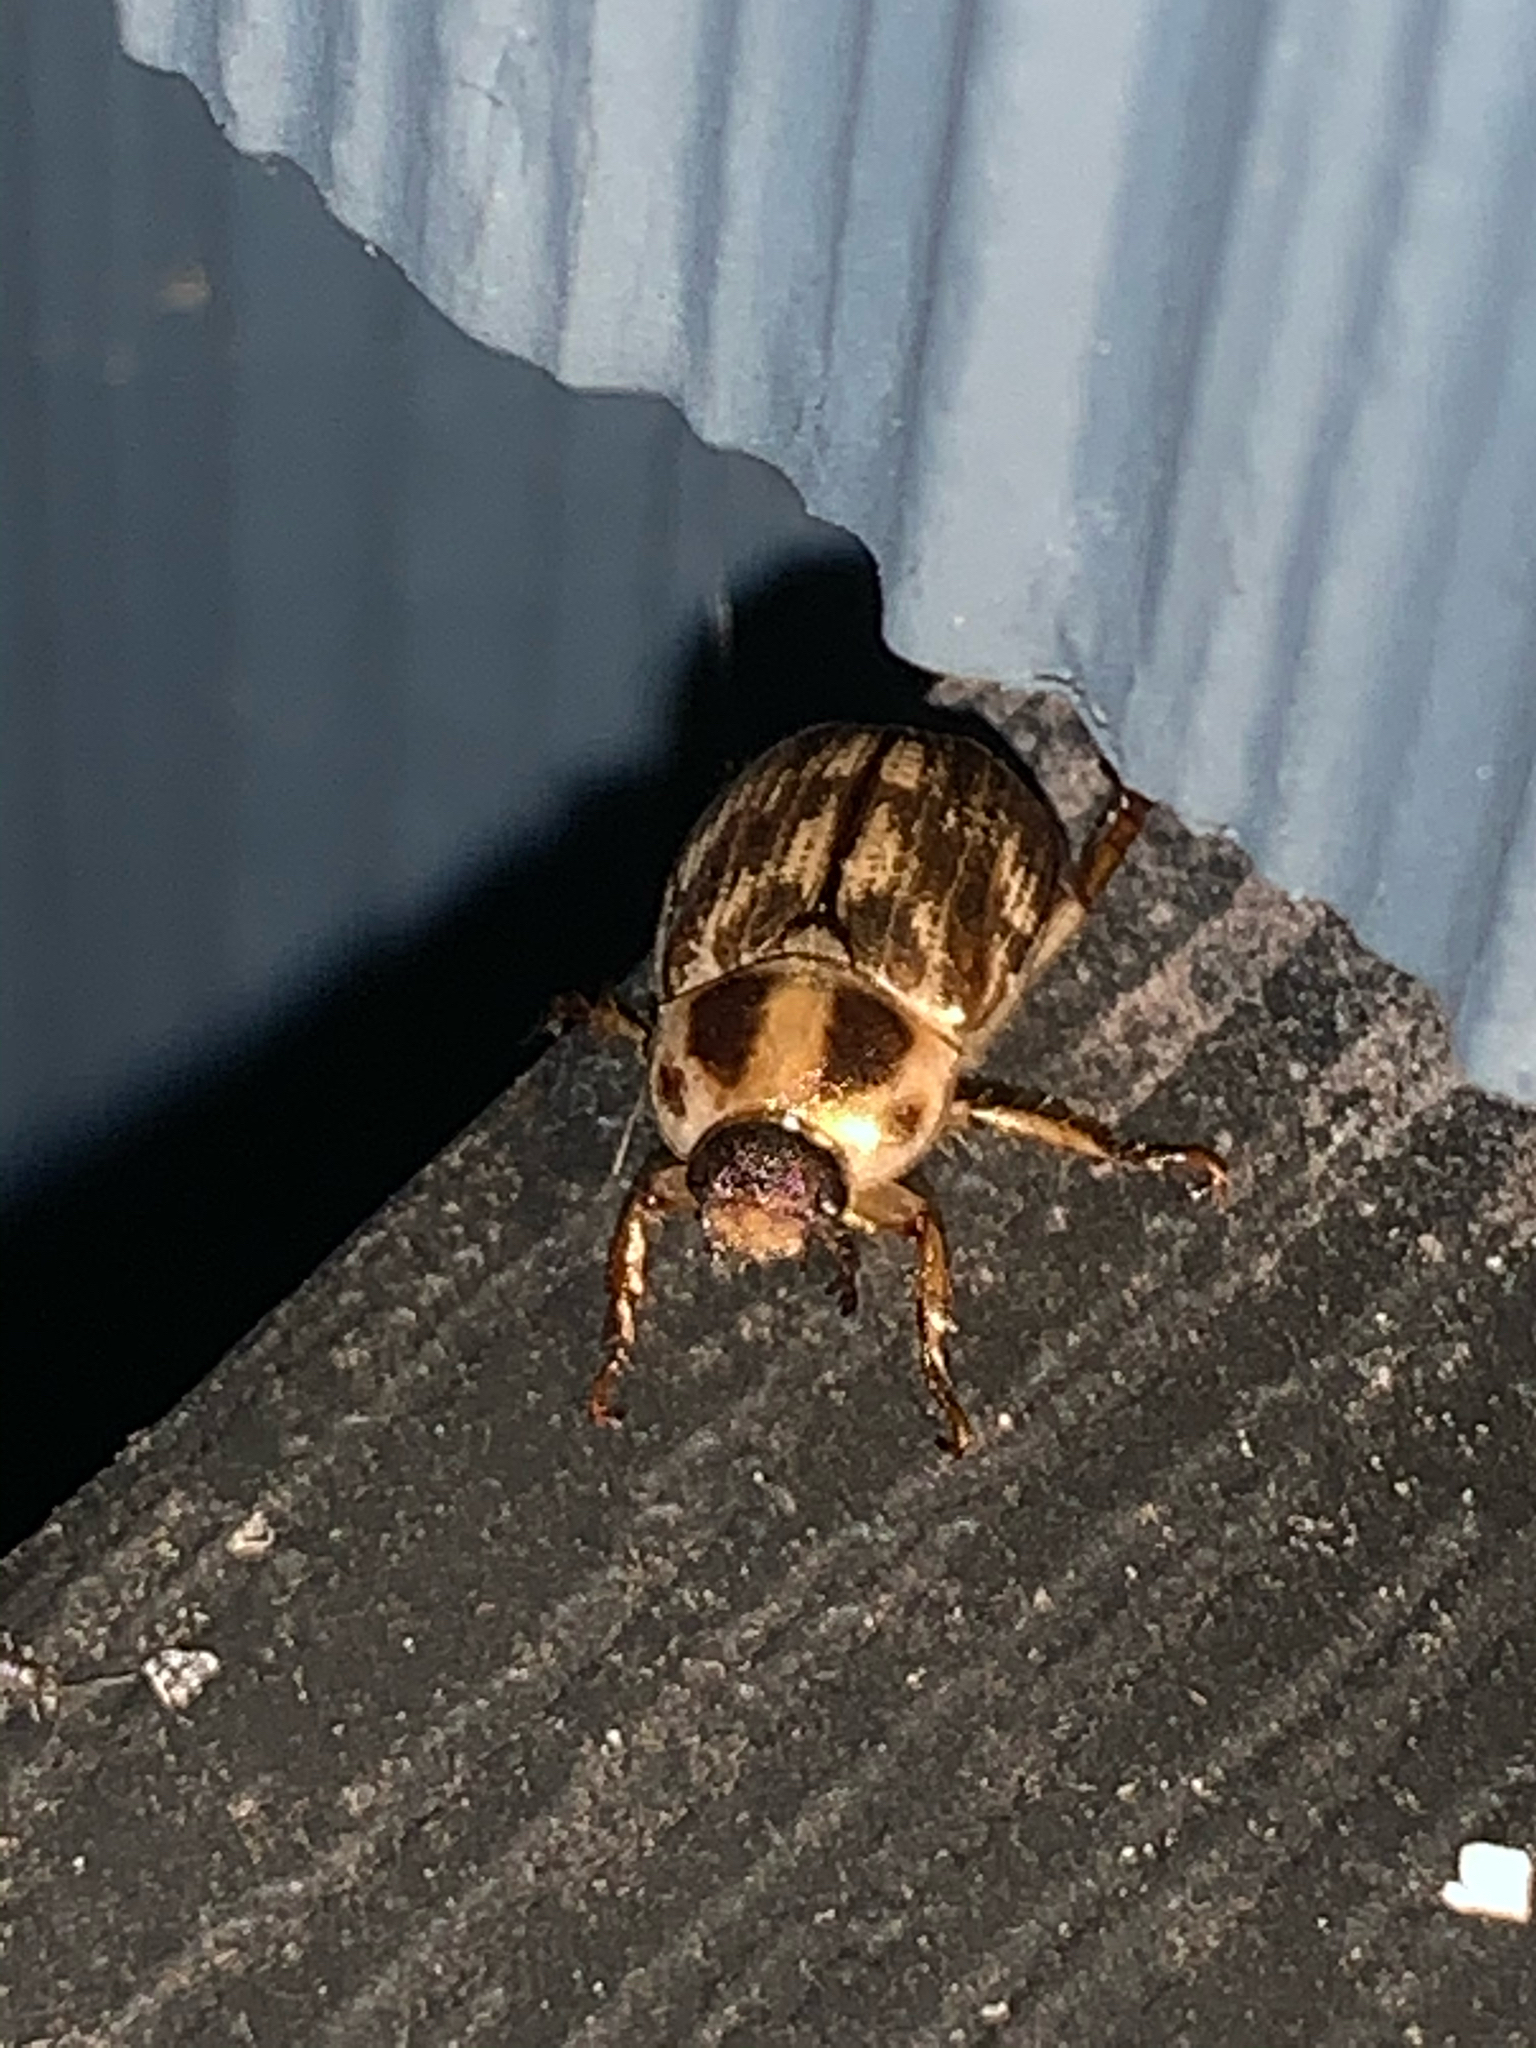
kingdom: Animalia
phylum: Arthropoda
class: Insecta
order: Coleoptera
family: Scarabaeidae
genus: Exomala
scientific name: Exomala orientalis
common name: Oriental beetle
